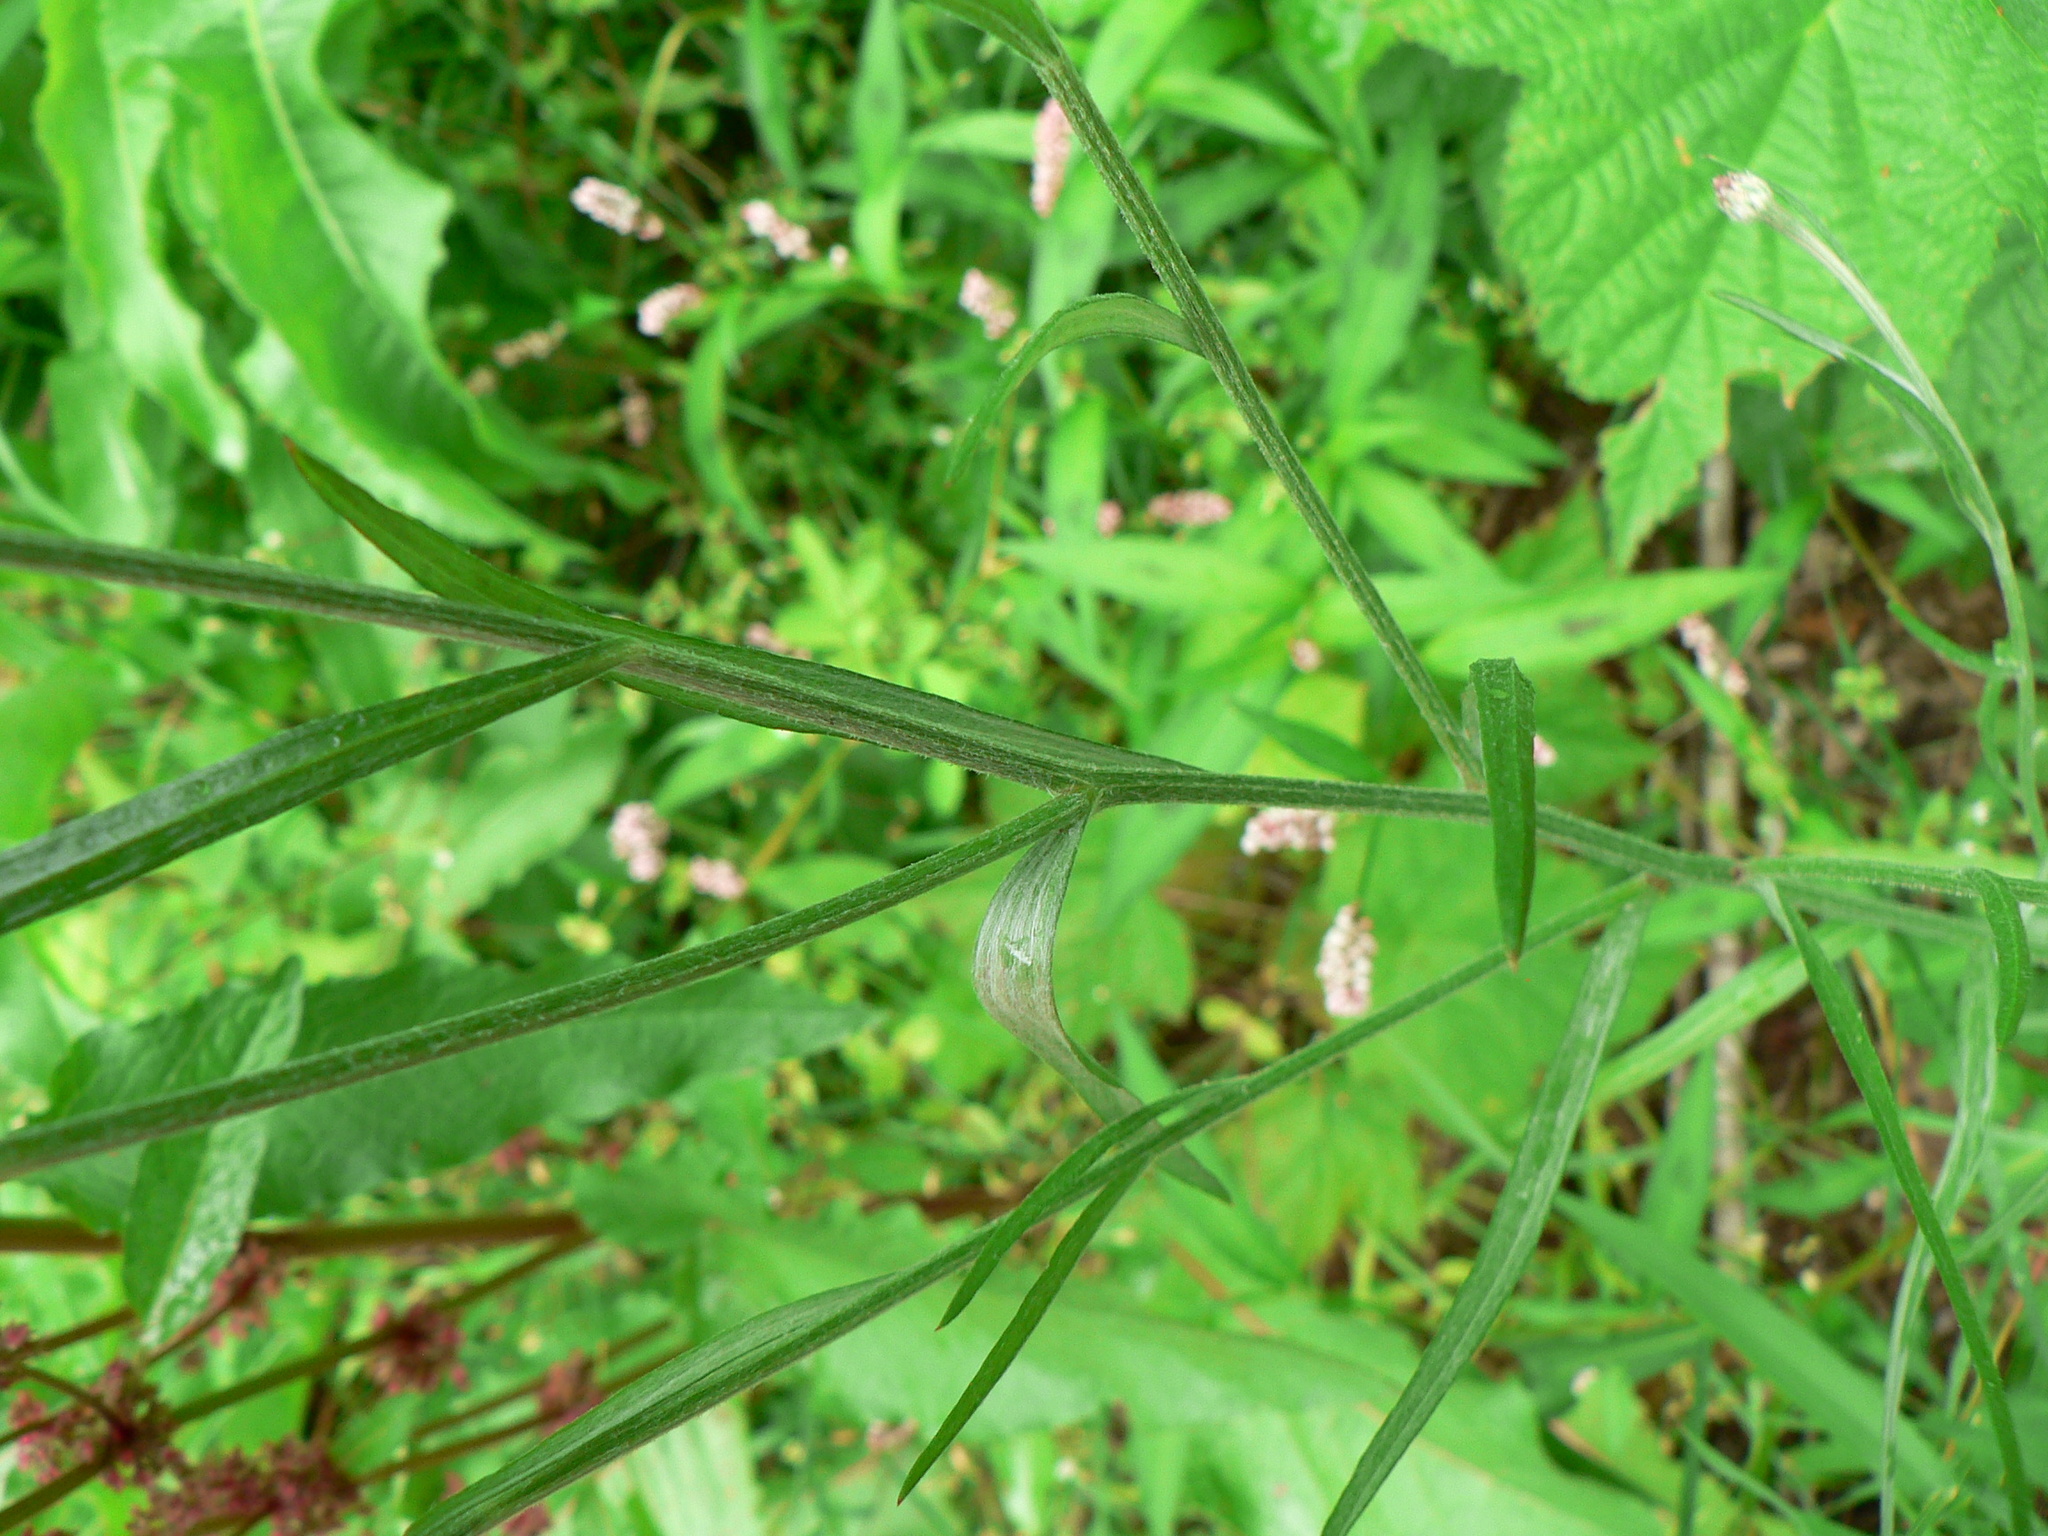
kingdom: Plantae
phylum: Tracheophyta
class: Magnoliopsida
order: Asterales
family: Asteraceae
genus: Centaurea
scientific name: Centaurea cyanus
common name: Cornflower
